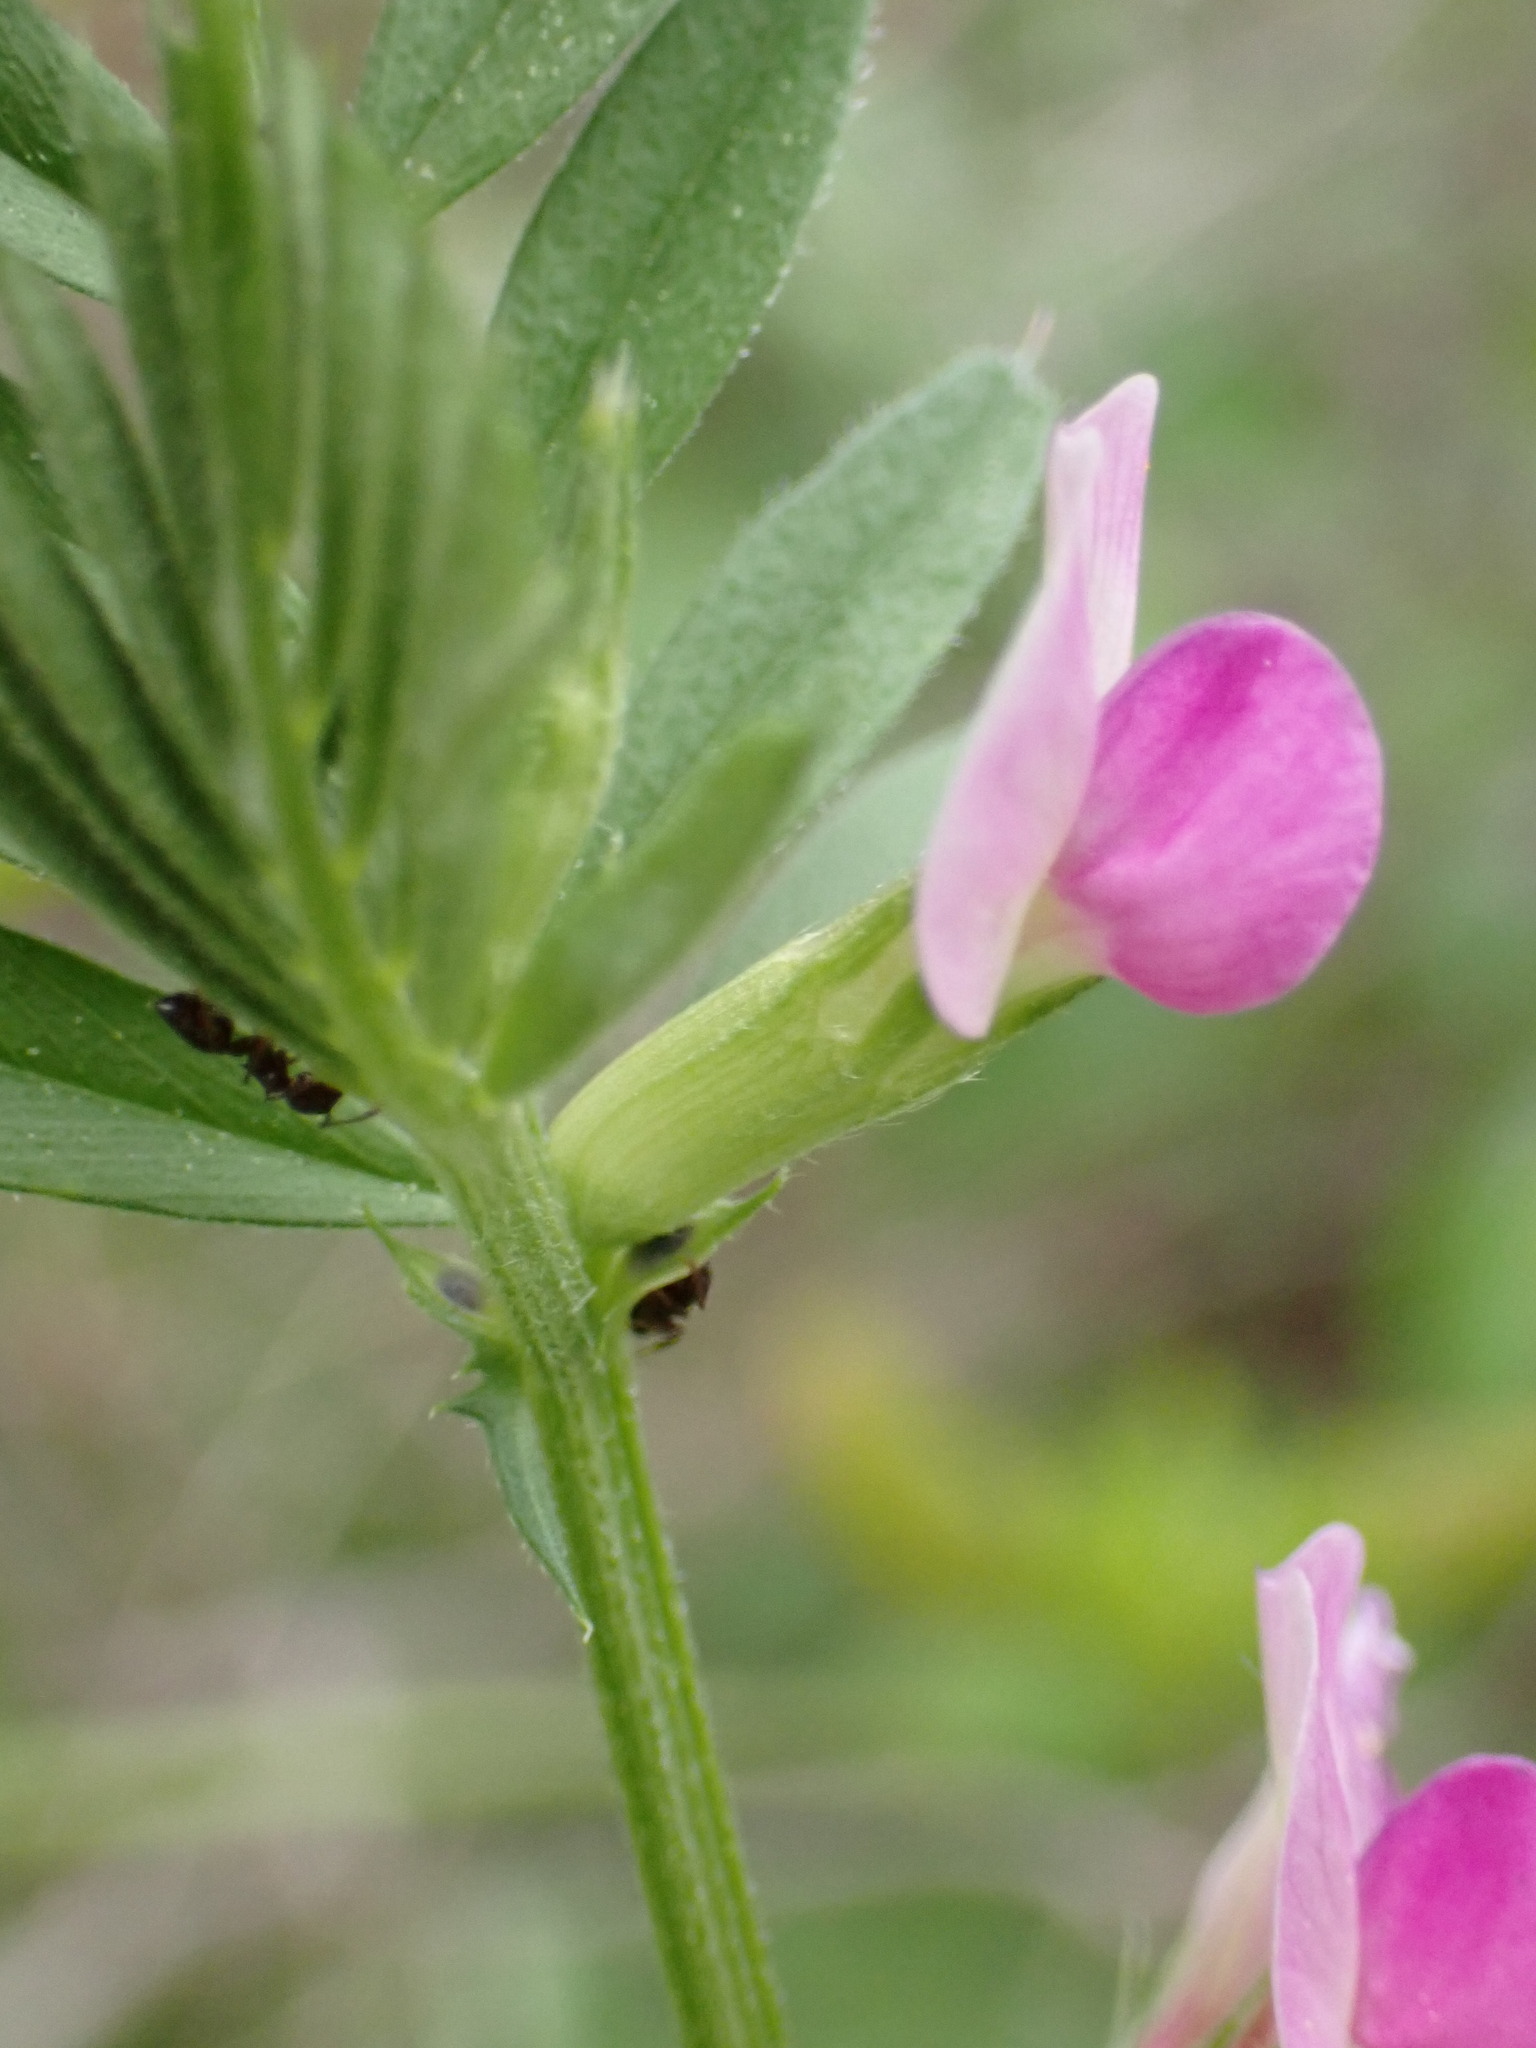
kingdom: Plantae
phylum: Tracheophyta
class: Magnoliopsida
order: Fabales
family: Fabaceae
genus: Vicia
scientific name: Vicia sativa
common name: Garden vetch
